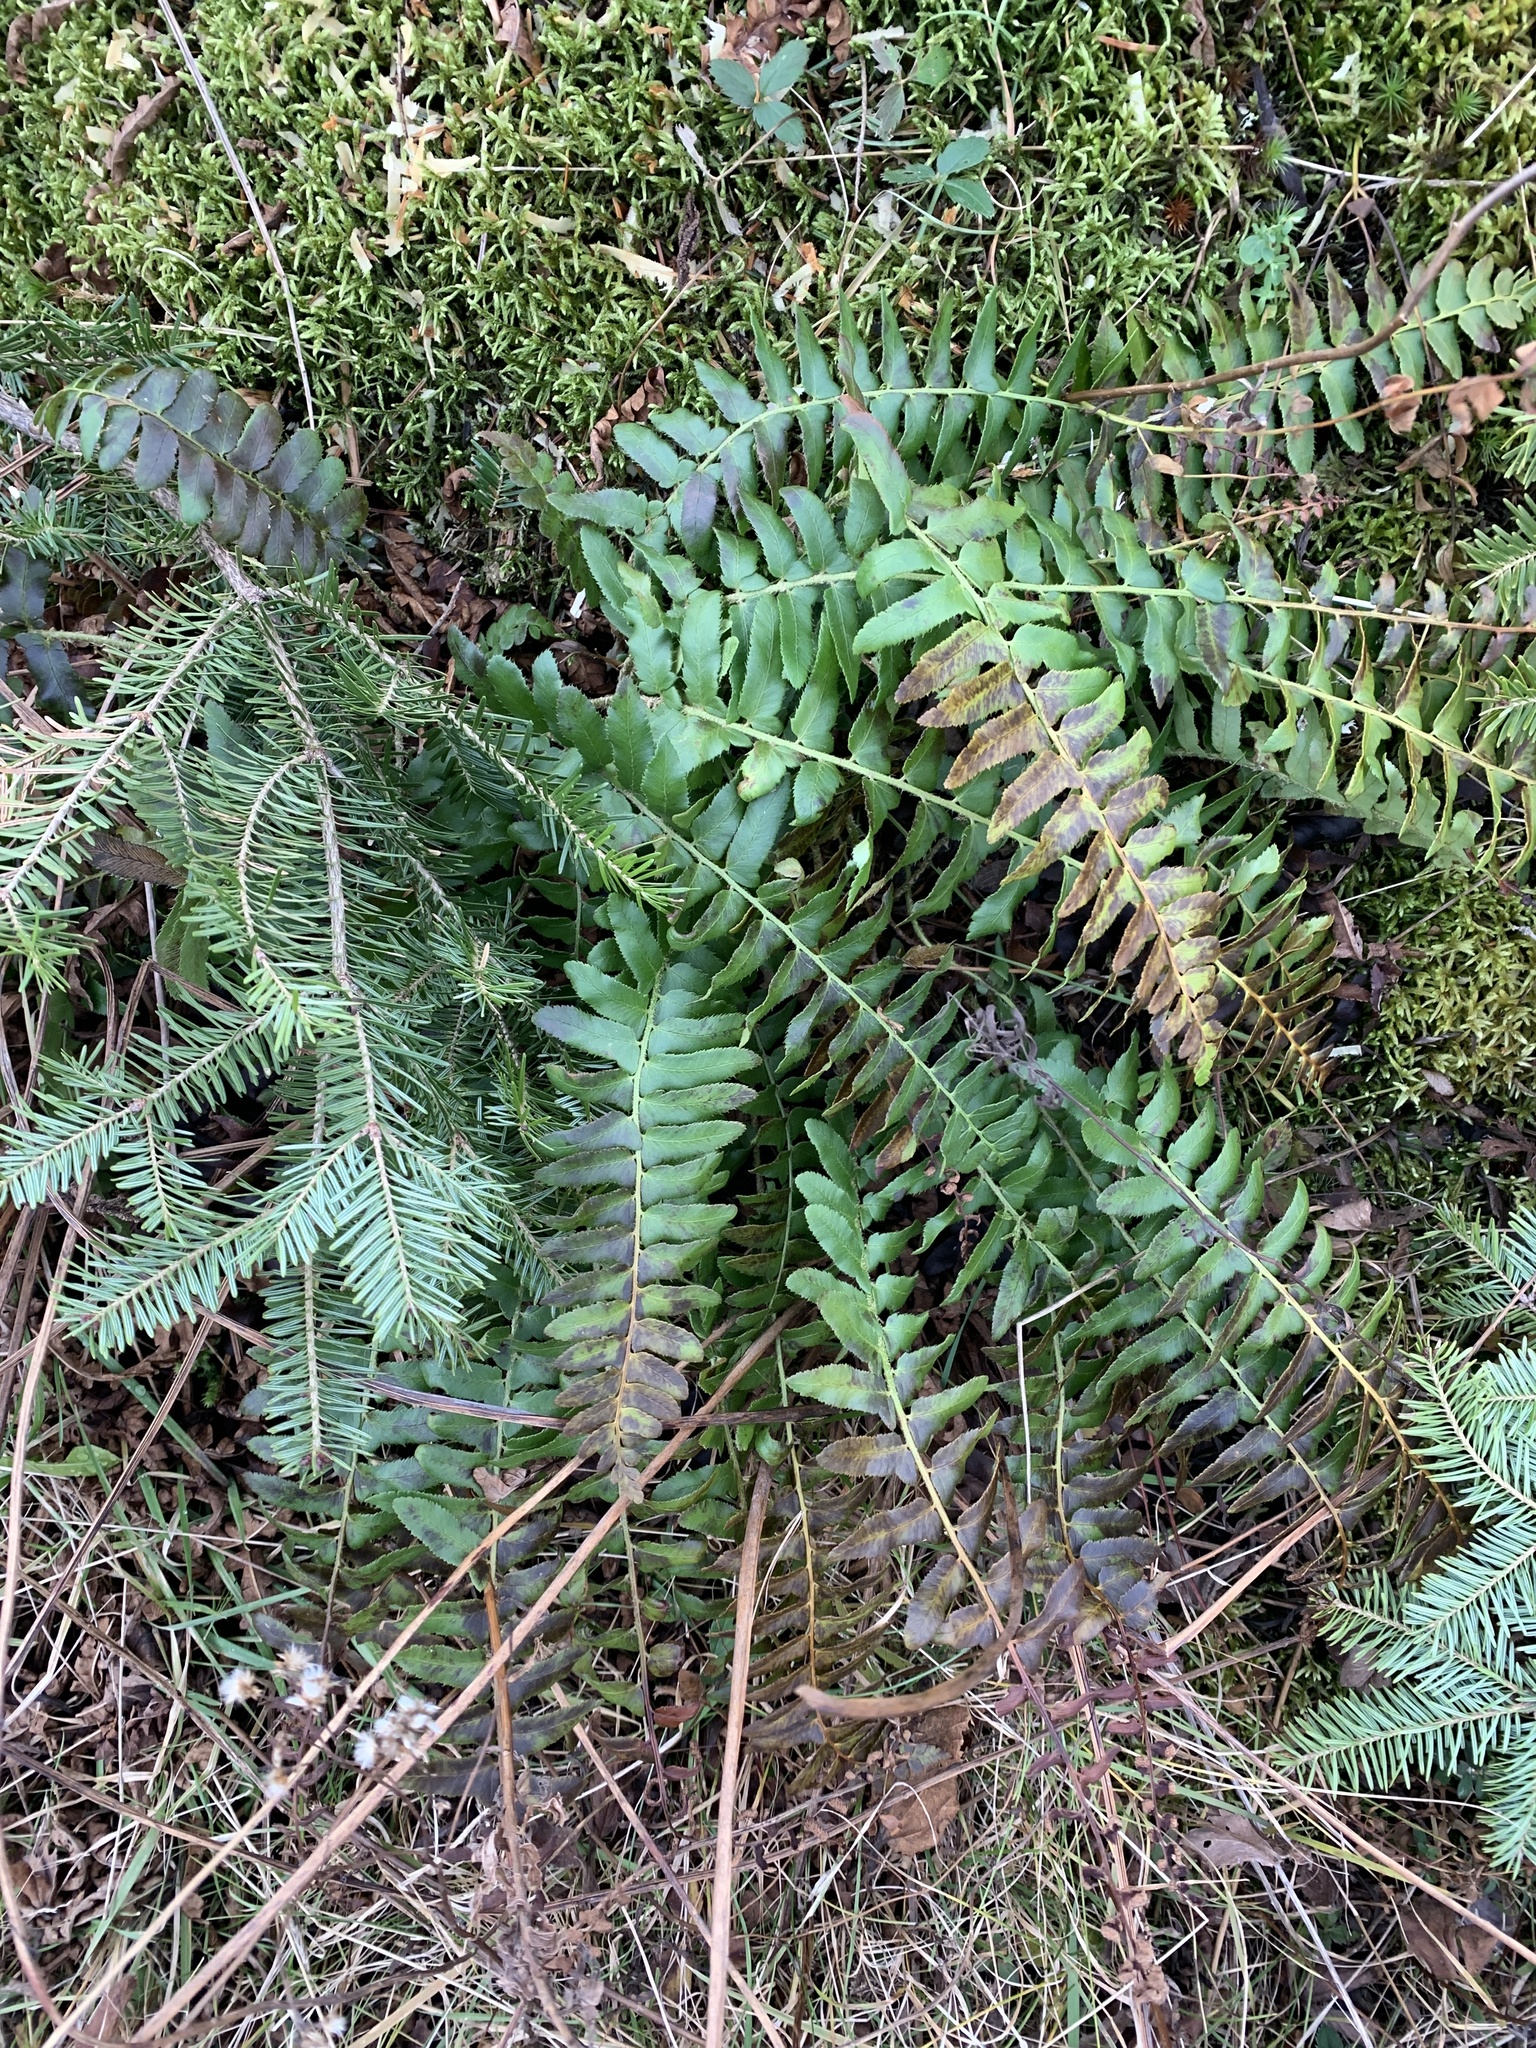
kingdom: Plantae
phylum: Tracheophyta
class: Polypodiopsida
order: Polypodiales
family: Dryopteridaceae
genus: Polystichum
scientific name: Polystichum acrostichoides
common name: Christmas fern
